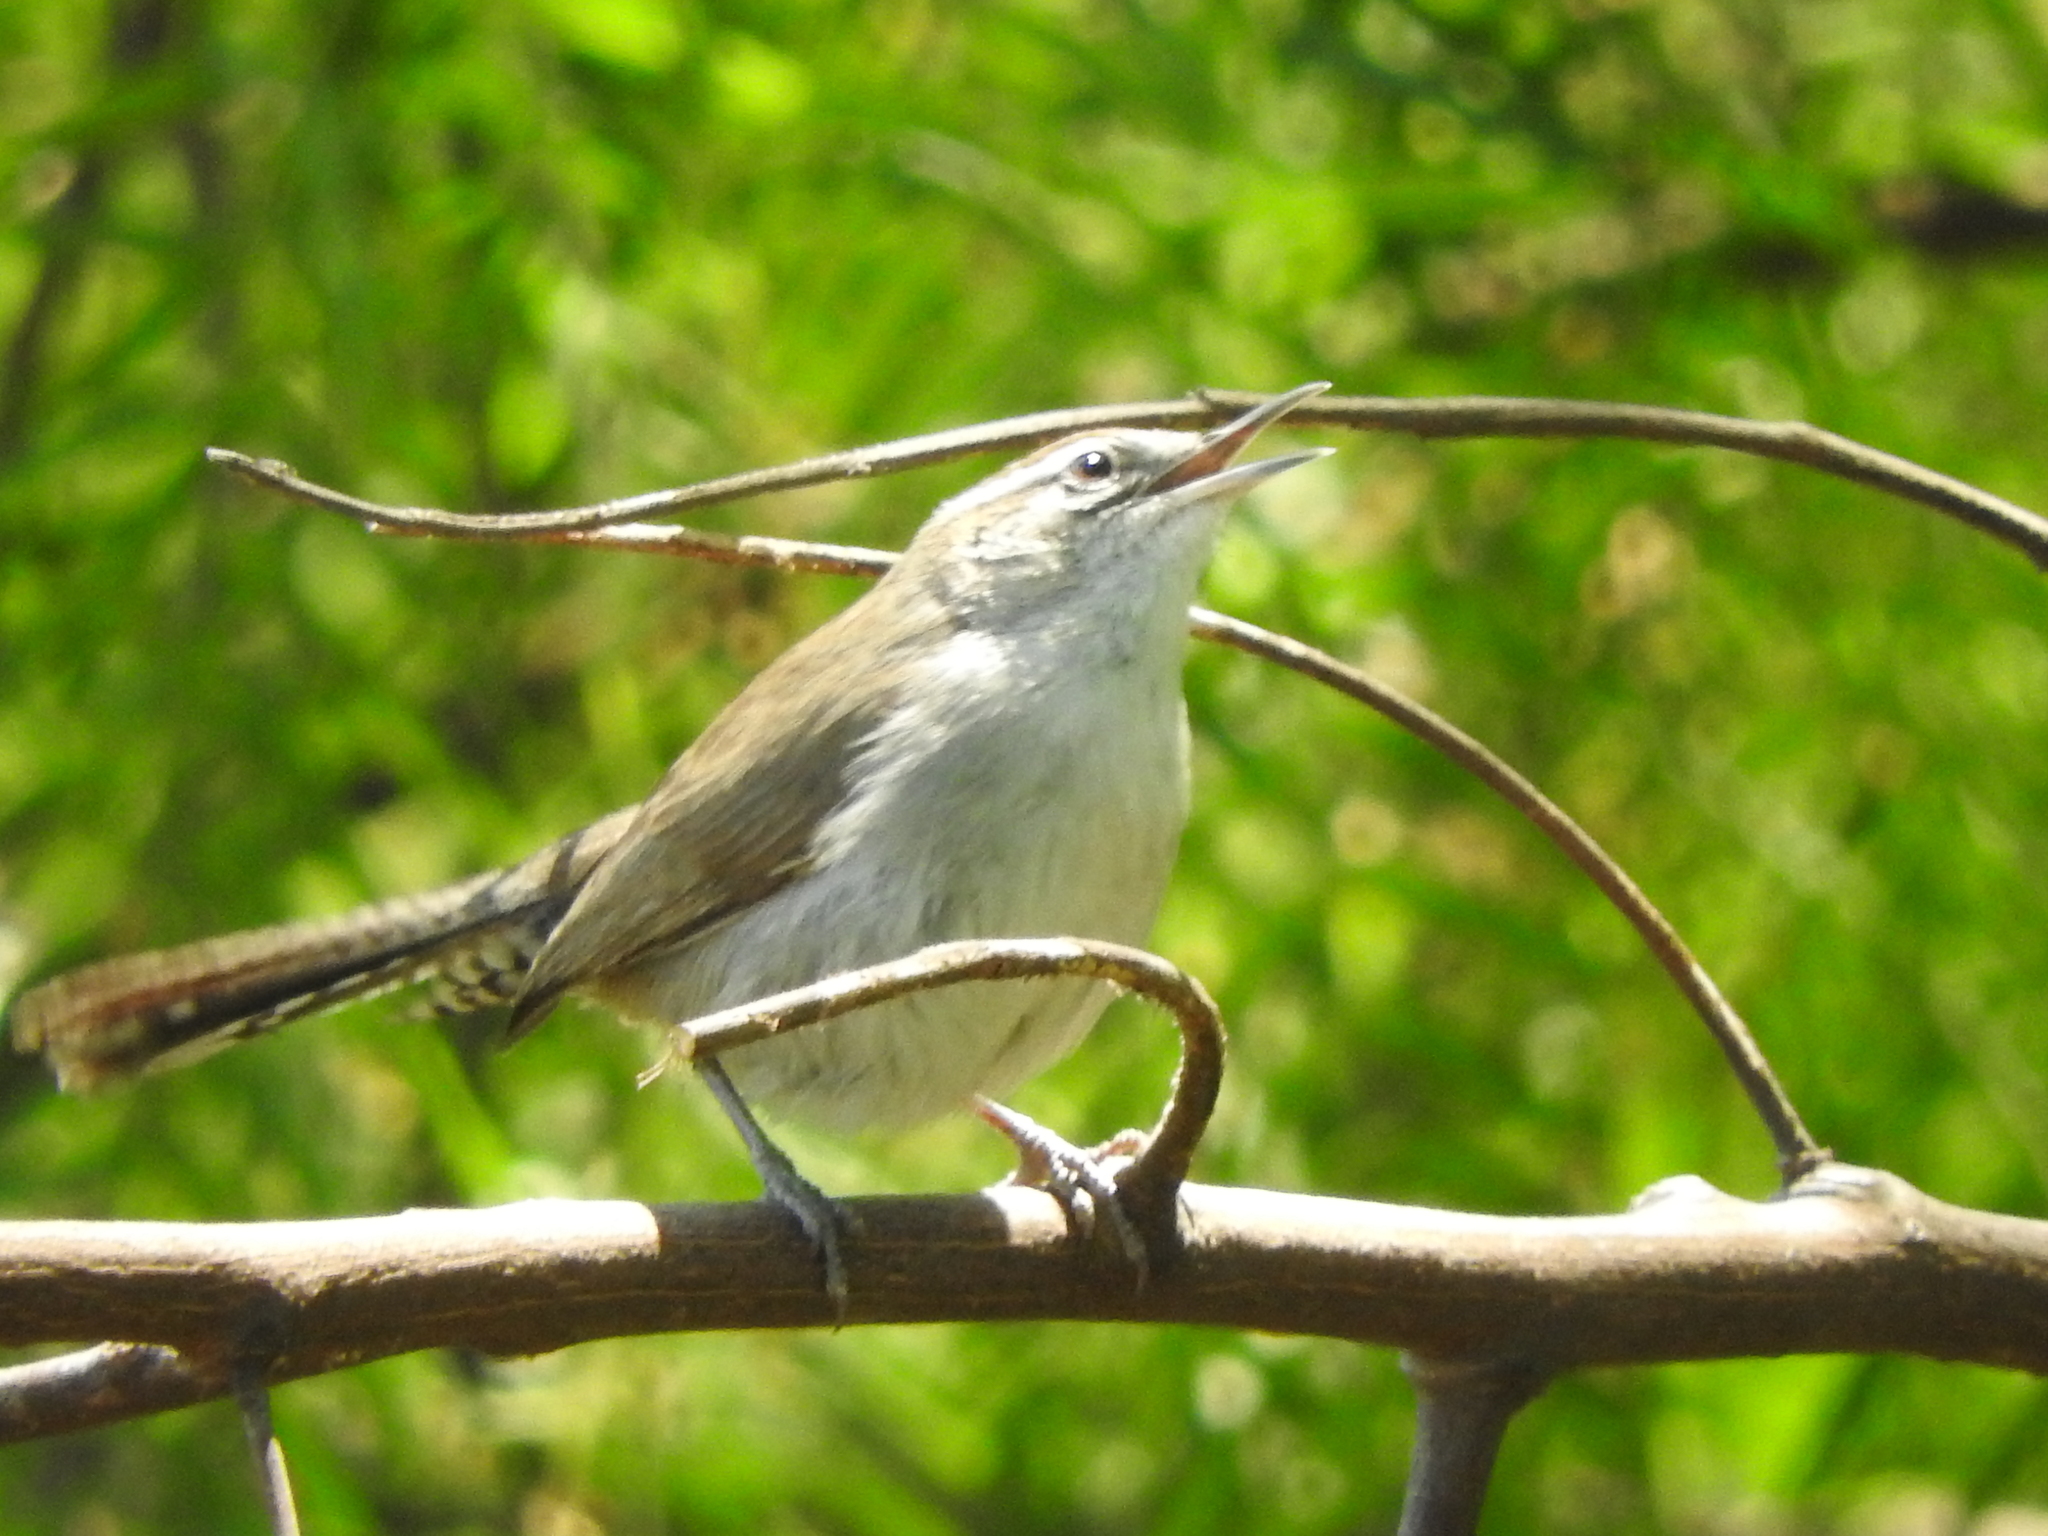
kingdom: Animalia
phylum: Chordata
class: Aves
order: Passeriformes
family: Troglodytidae
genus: Thryomanes
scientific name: Thryomanes bewickii
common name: Bewick's wren
